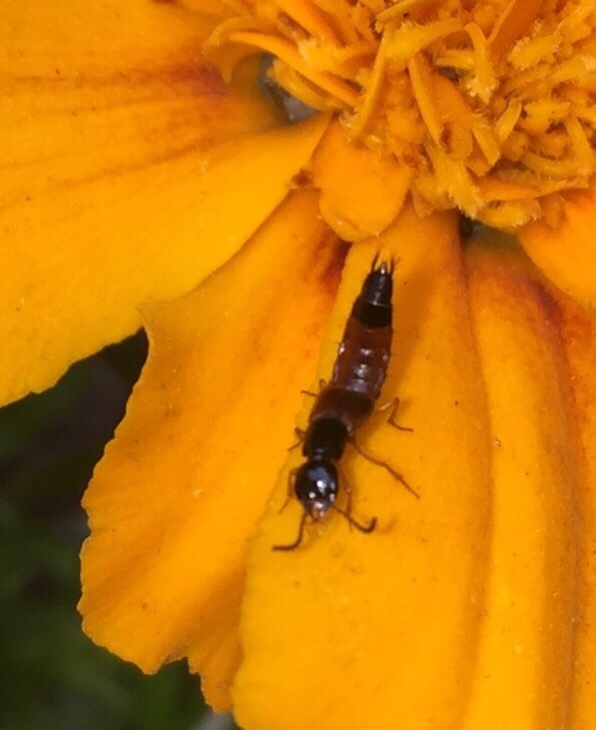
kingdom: Animalia
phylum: Arthropoda
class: Insecta
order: Coleoptera
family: Staphylinidae
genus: Belonuchus
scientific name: Belonuchus rufipennis
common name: Large rove beetle
